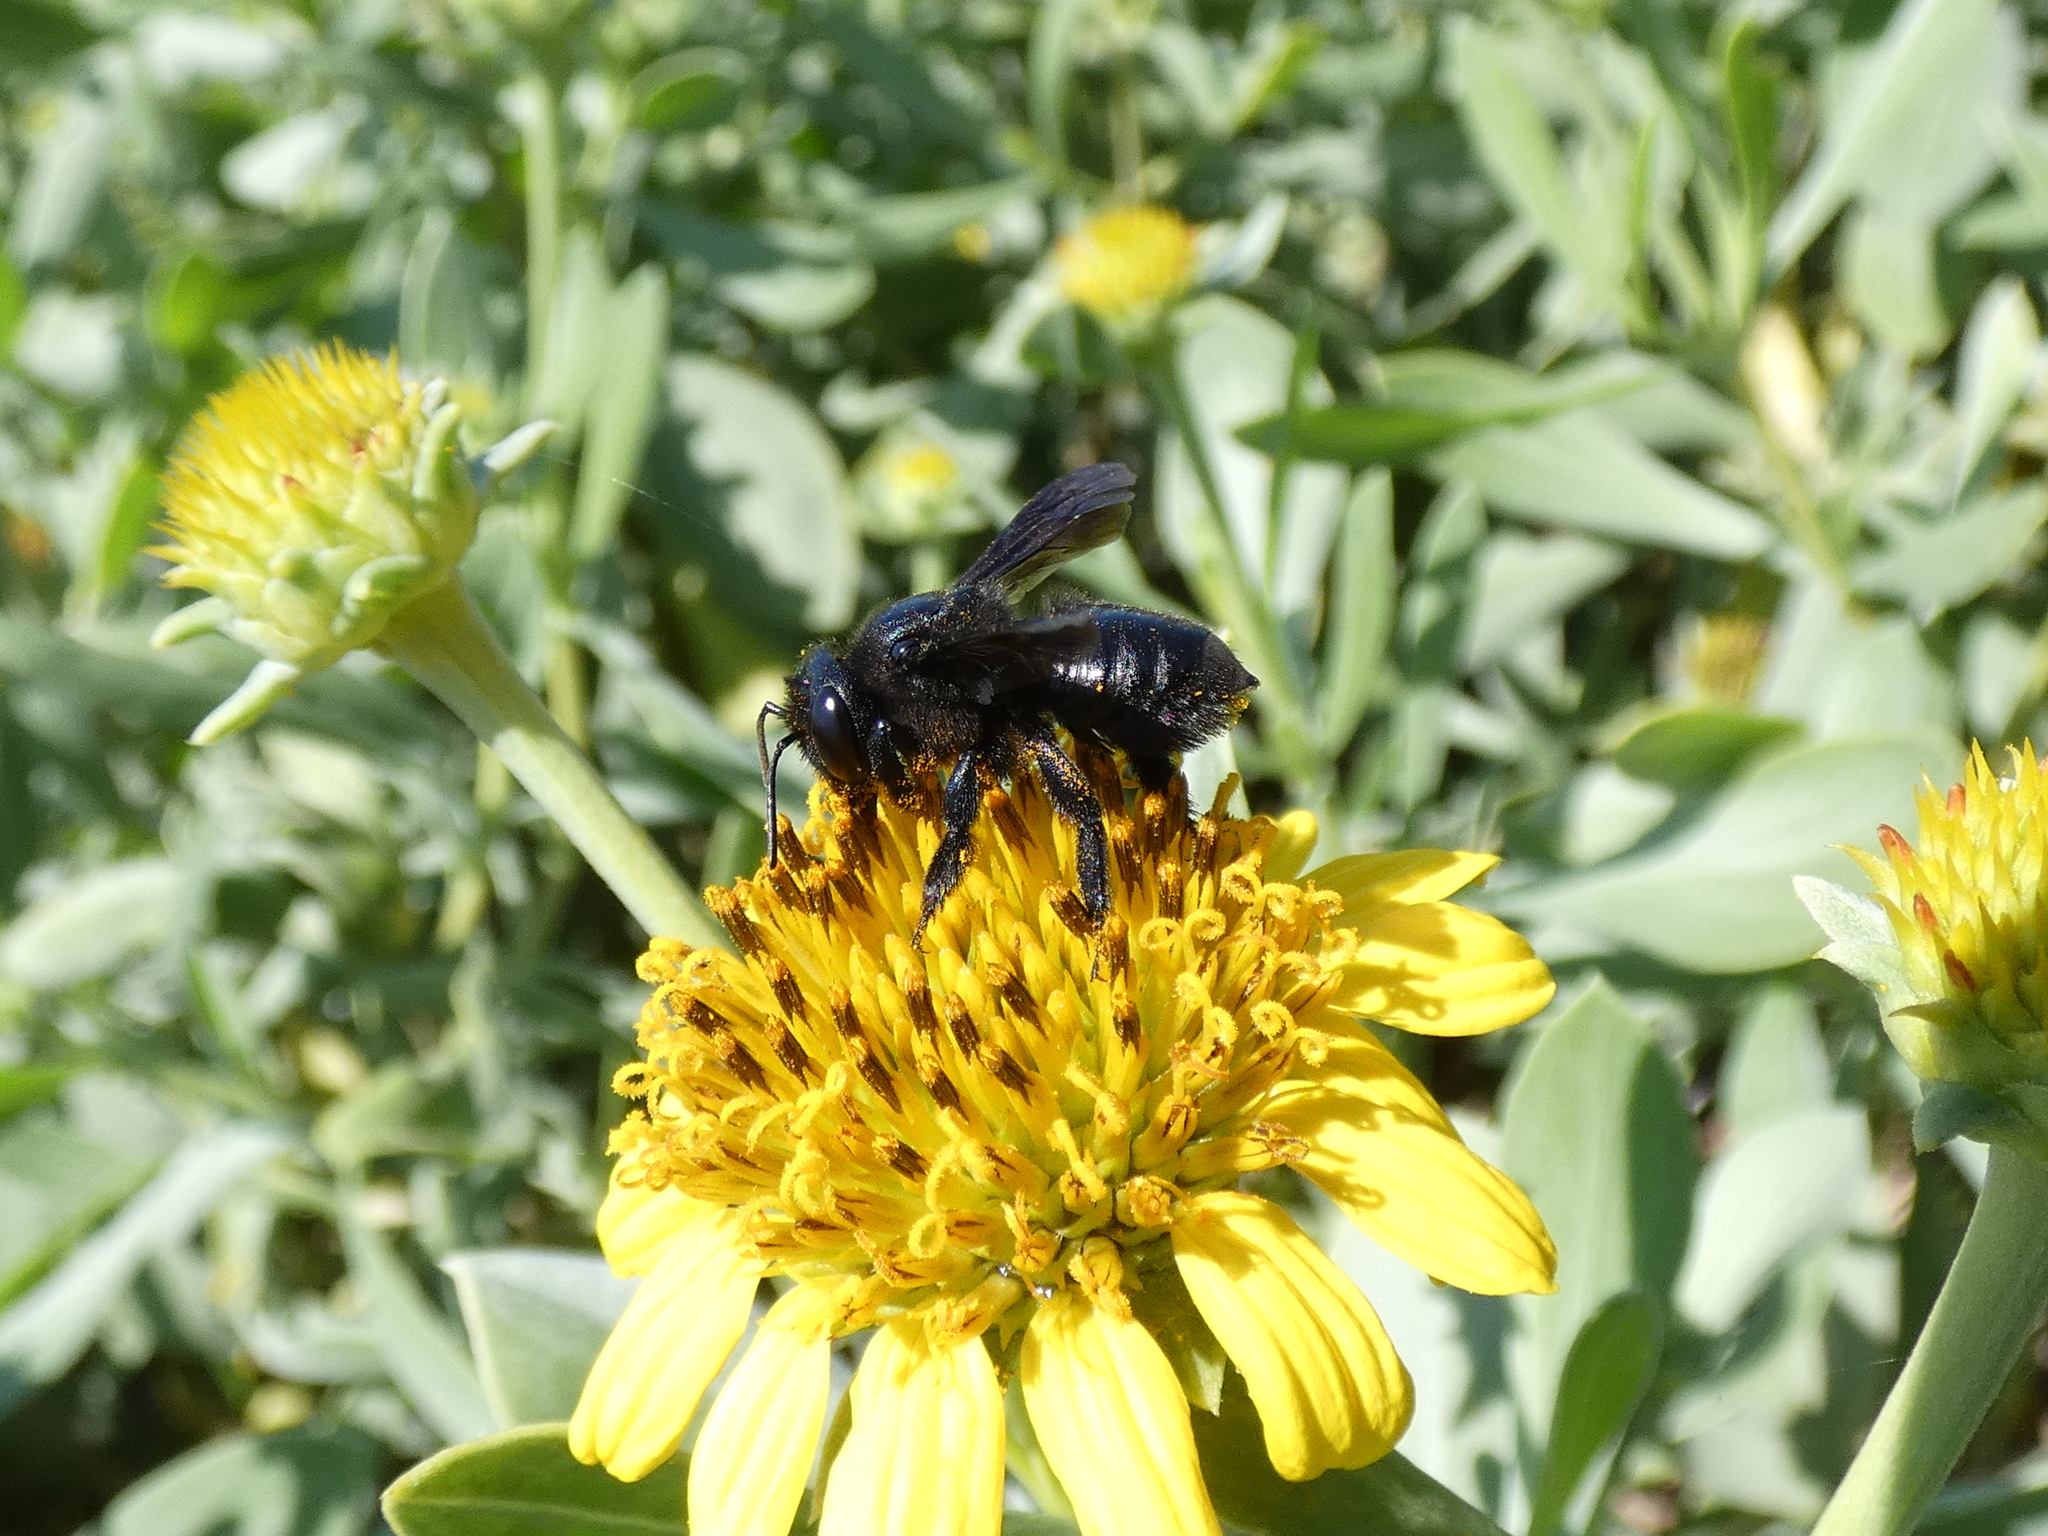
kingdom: Animalia
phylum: Arthropoda
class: Insecta
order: Hymenoptera
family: Megachilidae
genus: Megachile
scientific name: Megachile xylocopoides
